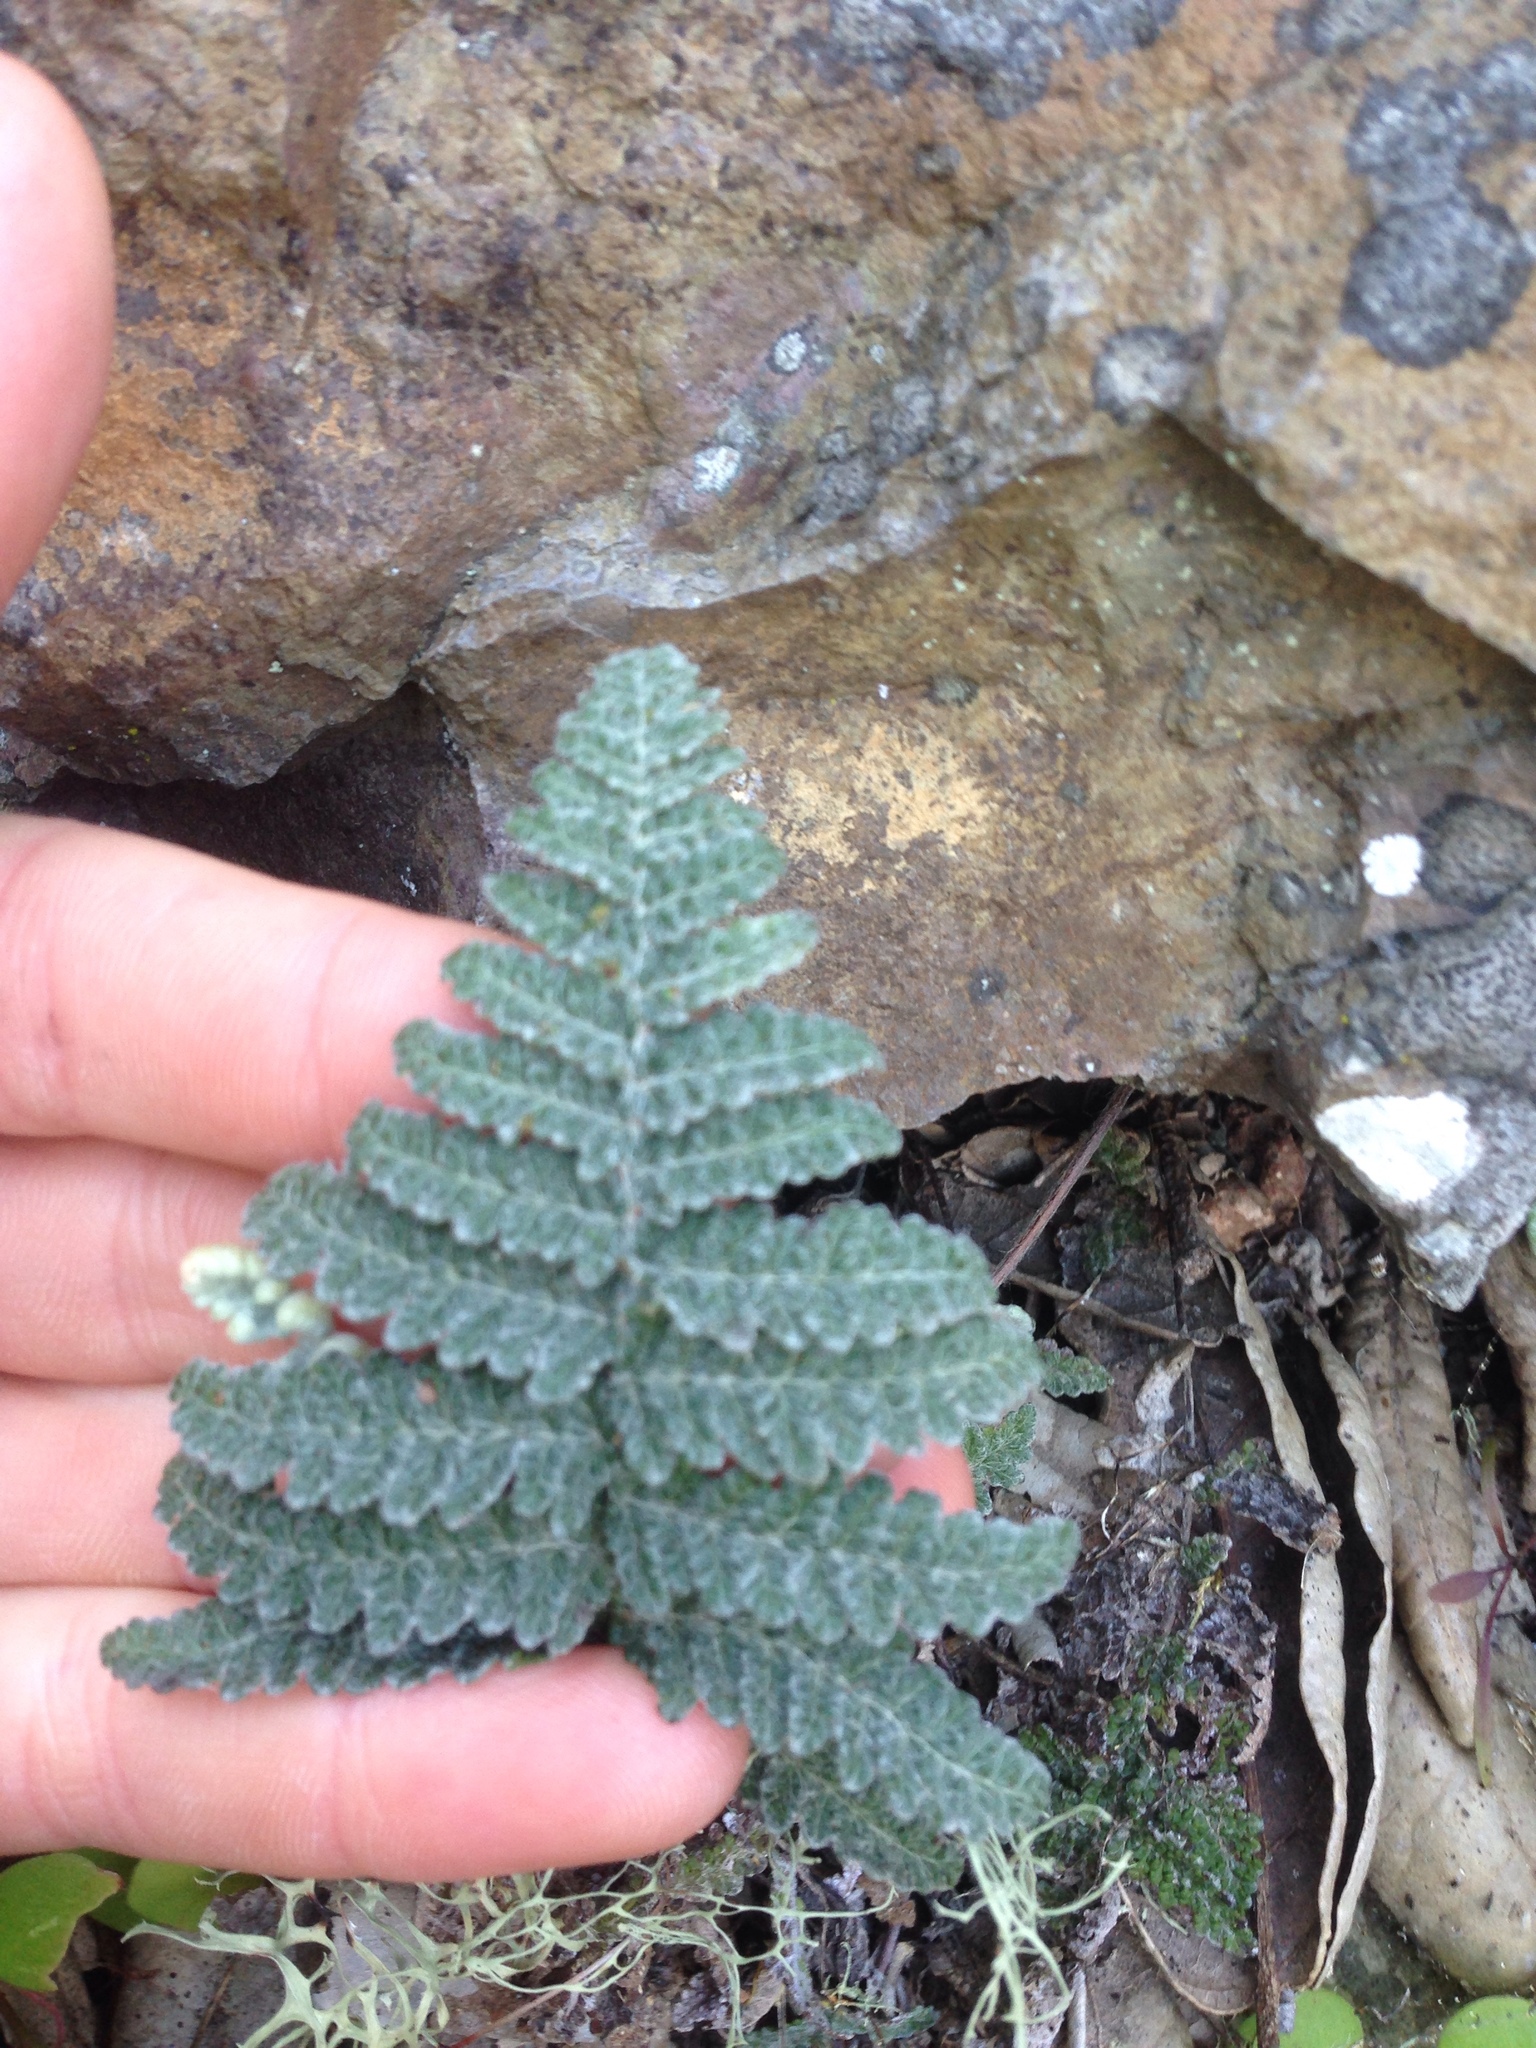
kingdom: Plantae
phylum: Tracheophyta
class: Polypodiopsida
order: Polypodiales
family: Pteridaceae
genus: Myriopteris
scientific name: Myriopteris newberryi
